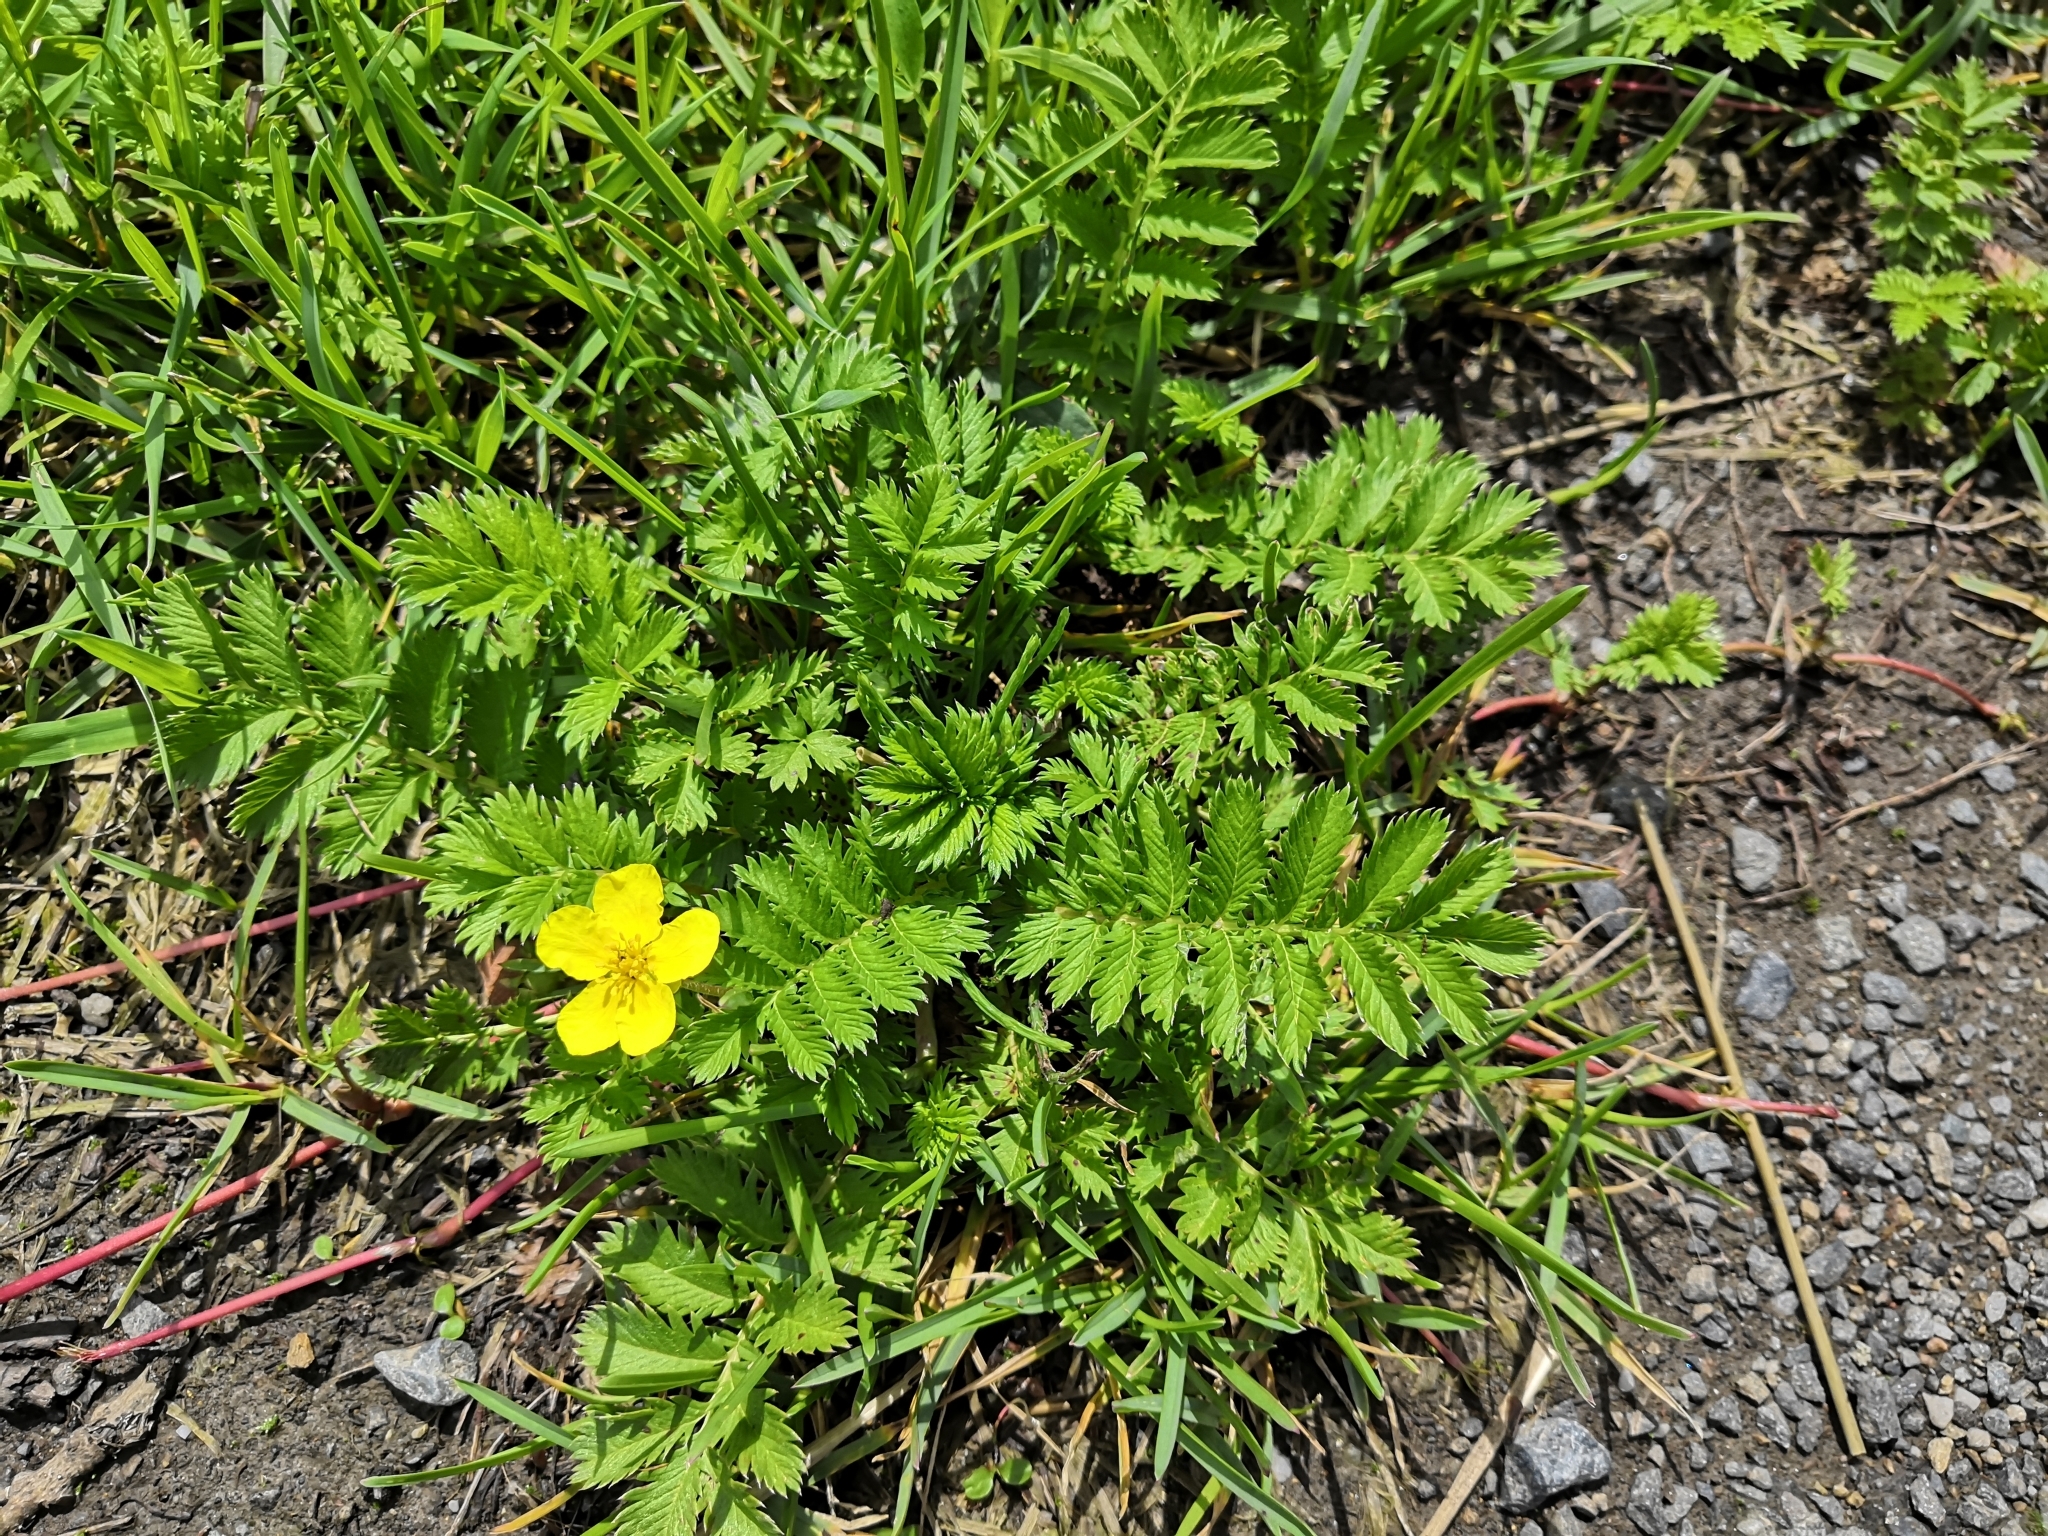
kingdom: Plantae
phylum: Tracheophyta
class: Magnoliopsida
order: Rosales
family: Rosaceae
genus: Argentina
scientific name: Argentina anserina
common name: Common silverweed
